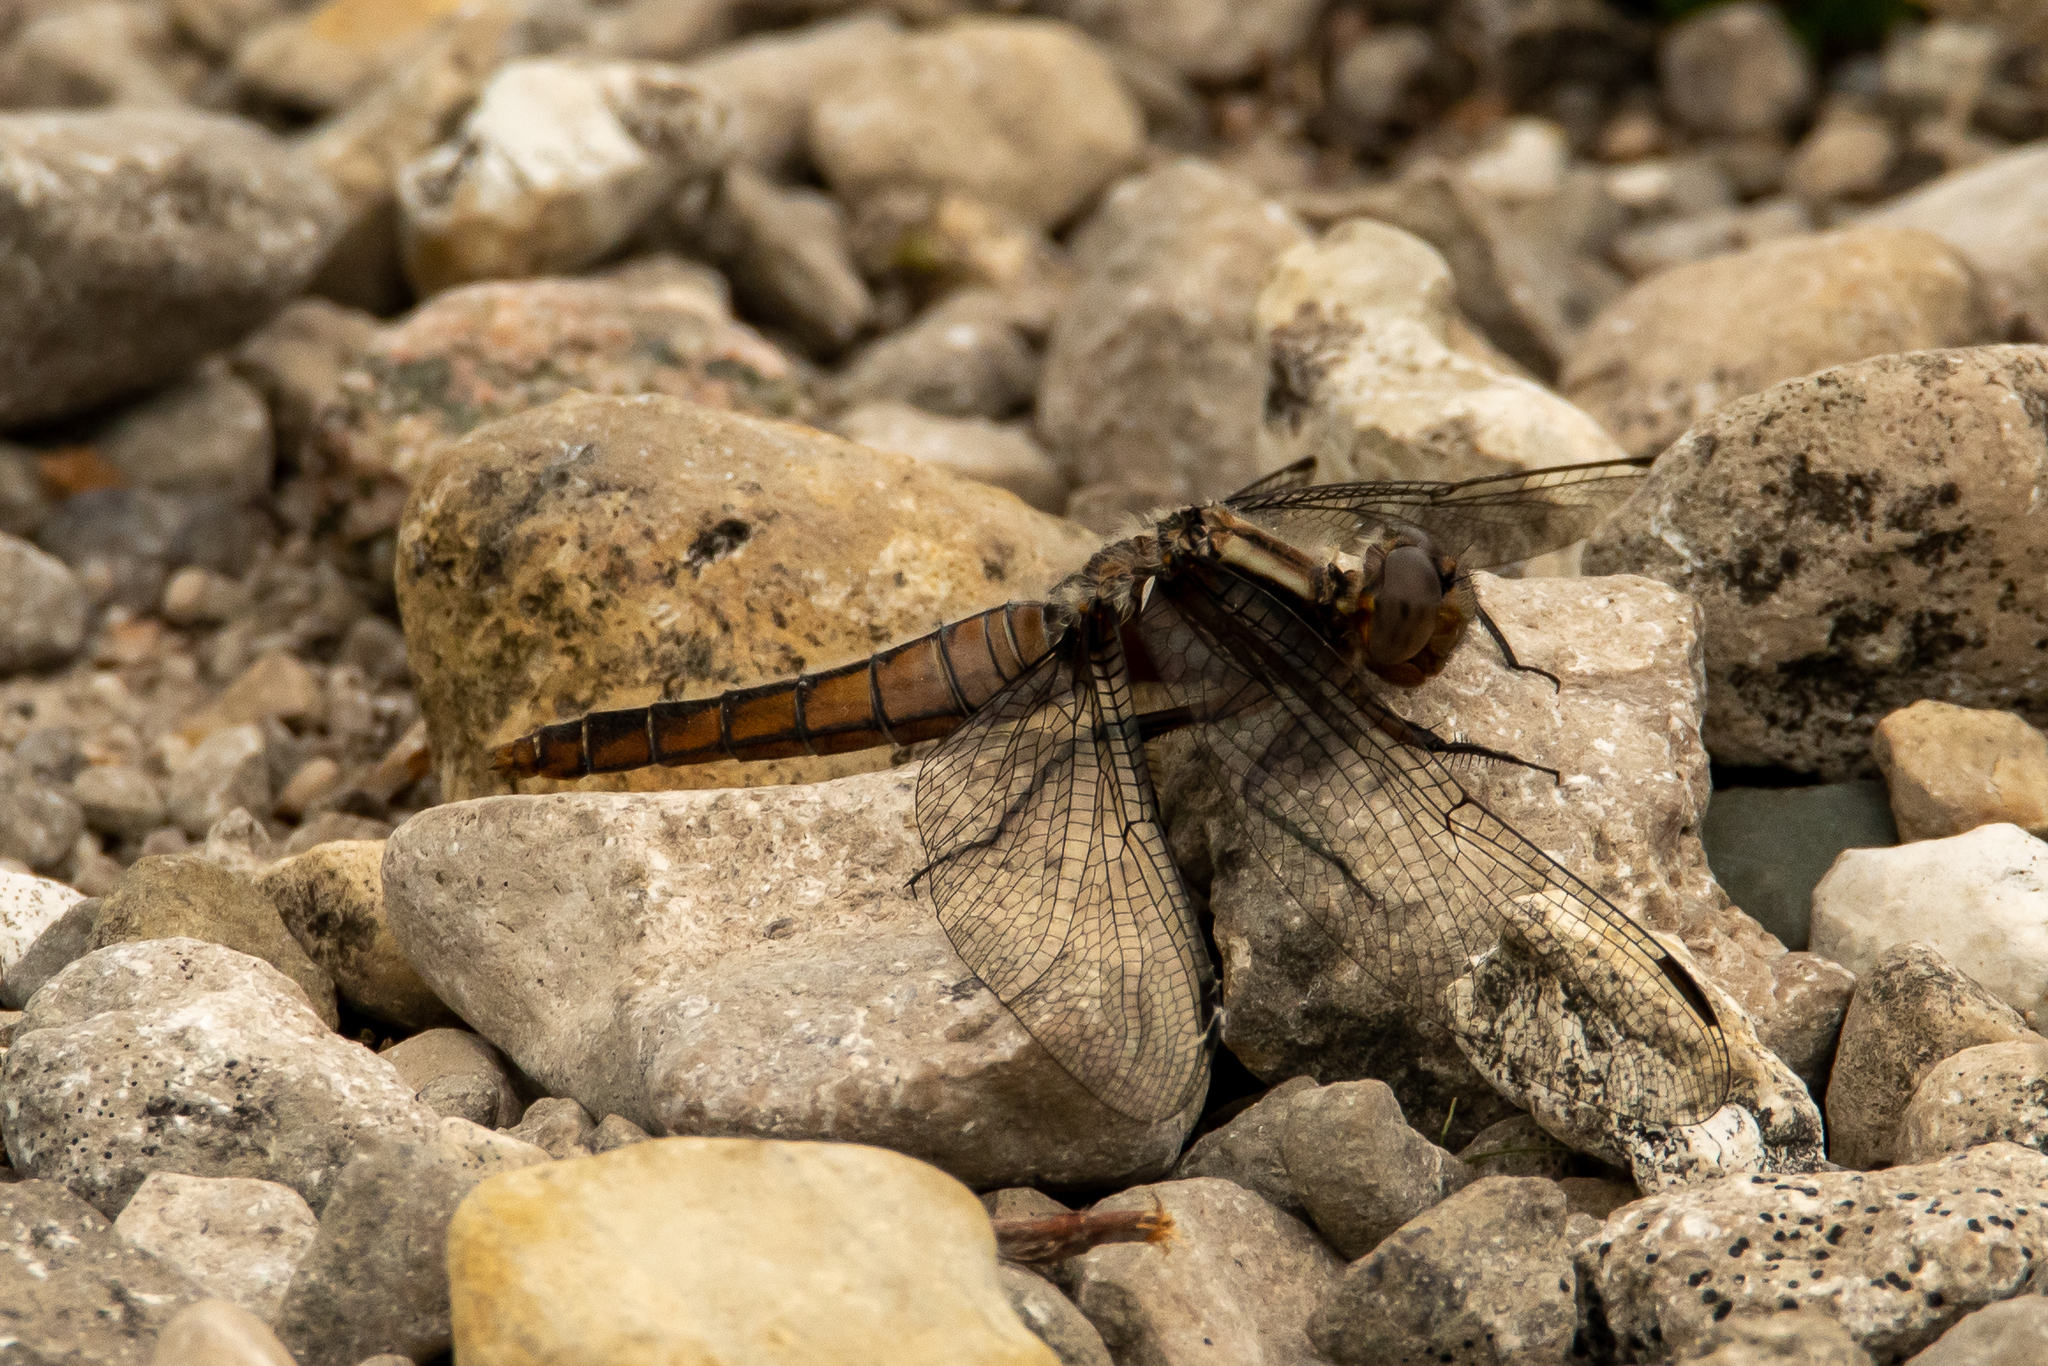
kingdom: Animalia
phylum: Arthropoda
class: Insecta
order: Odonata
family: Libellulidae
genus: Ladona
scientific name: Ladona julia
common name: Chalk-fronted corporal
